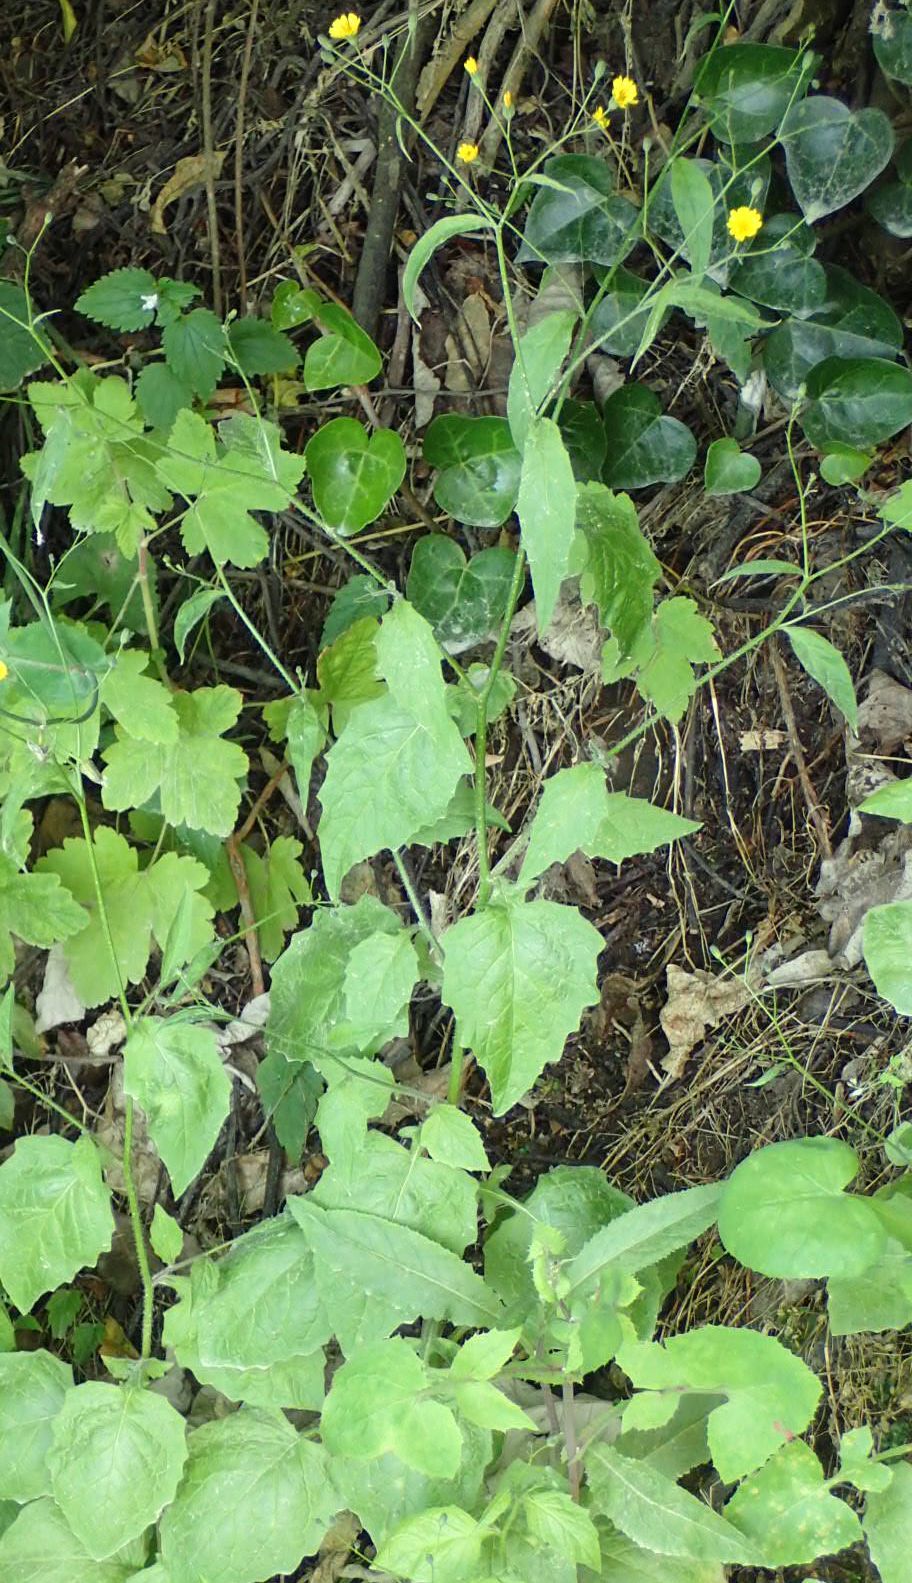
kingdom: Plantae
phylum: Tracheophyta
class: Magnoliopsida
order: Asterales
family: Asteraceae
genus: Lapsana
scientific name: Lapsana communis
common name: Nipplewort
